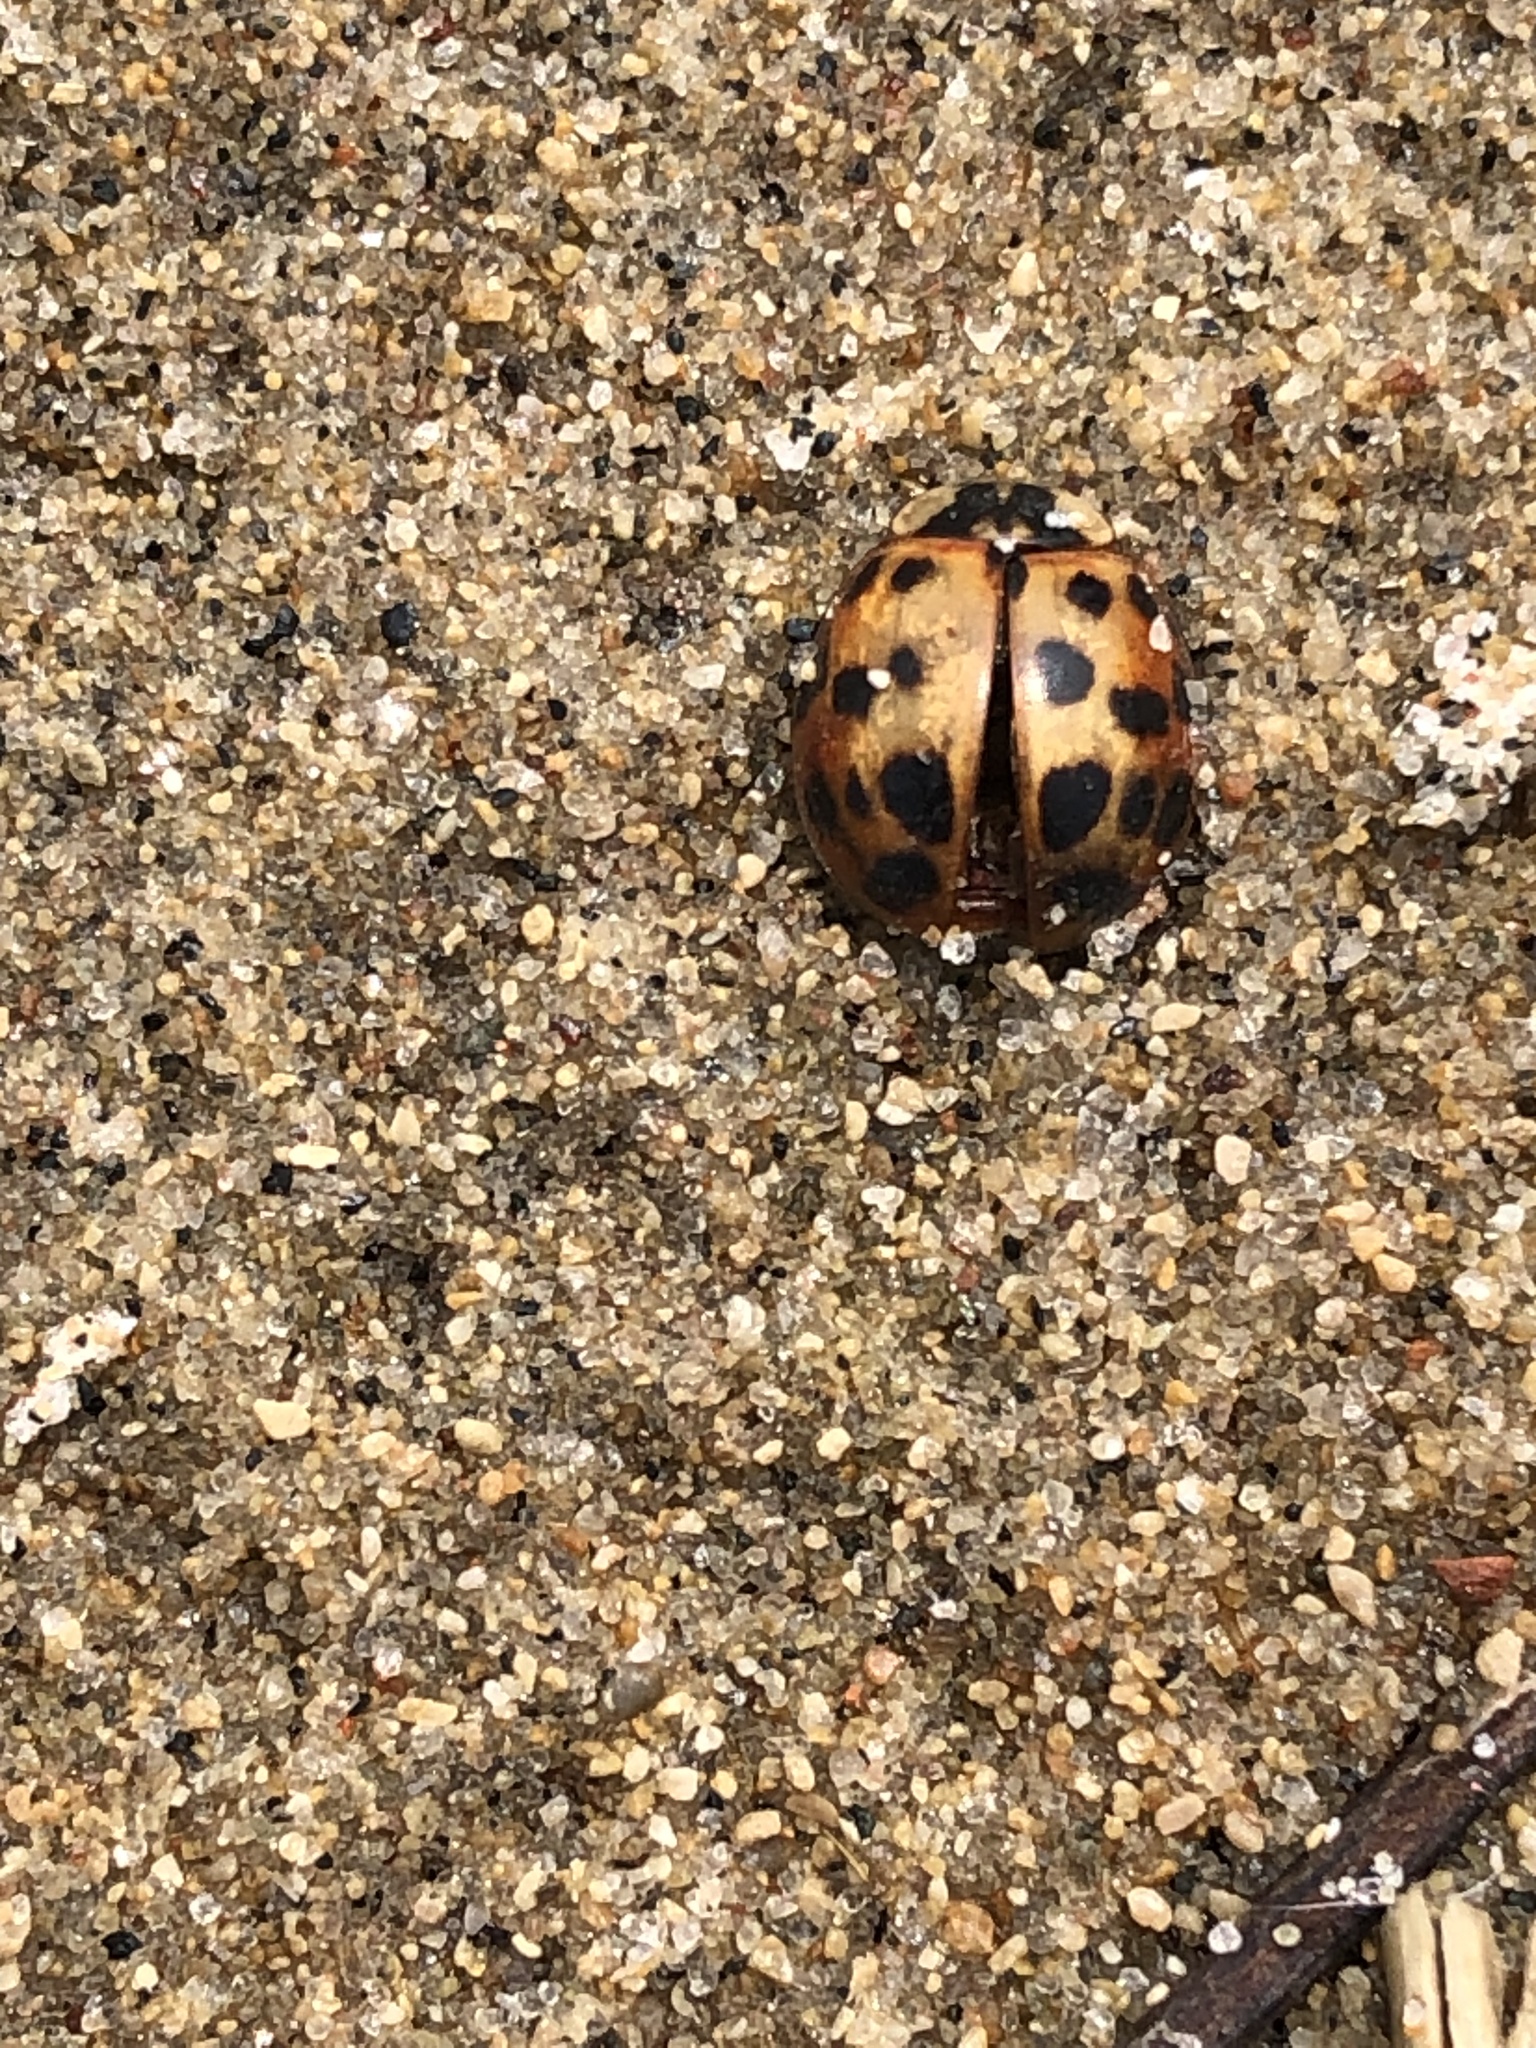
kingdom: Animalia
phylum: Arthropoda
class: Insecta
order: Coleoptera
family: Coccinellidae
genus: Harmonia
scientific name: Harmonia axyridis
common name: Harlequin ladybird
